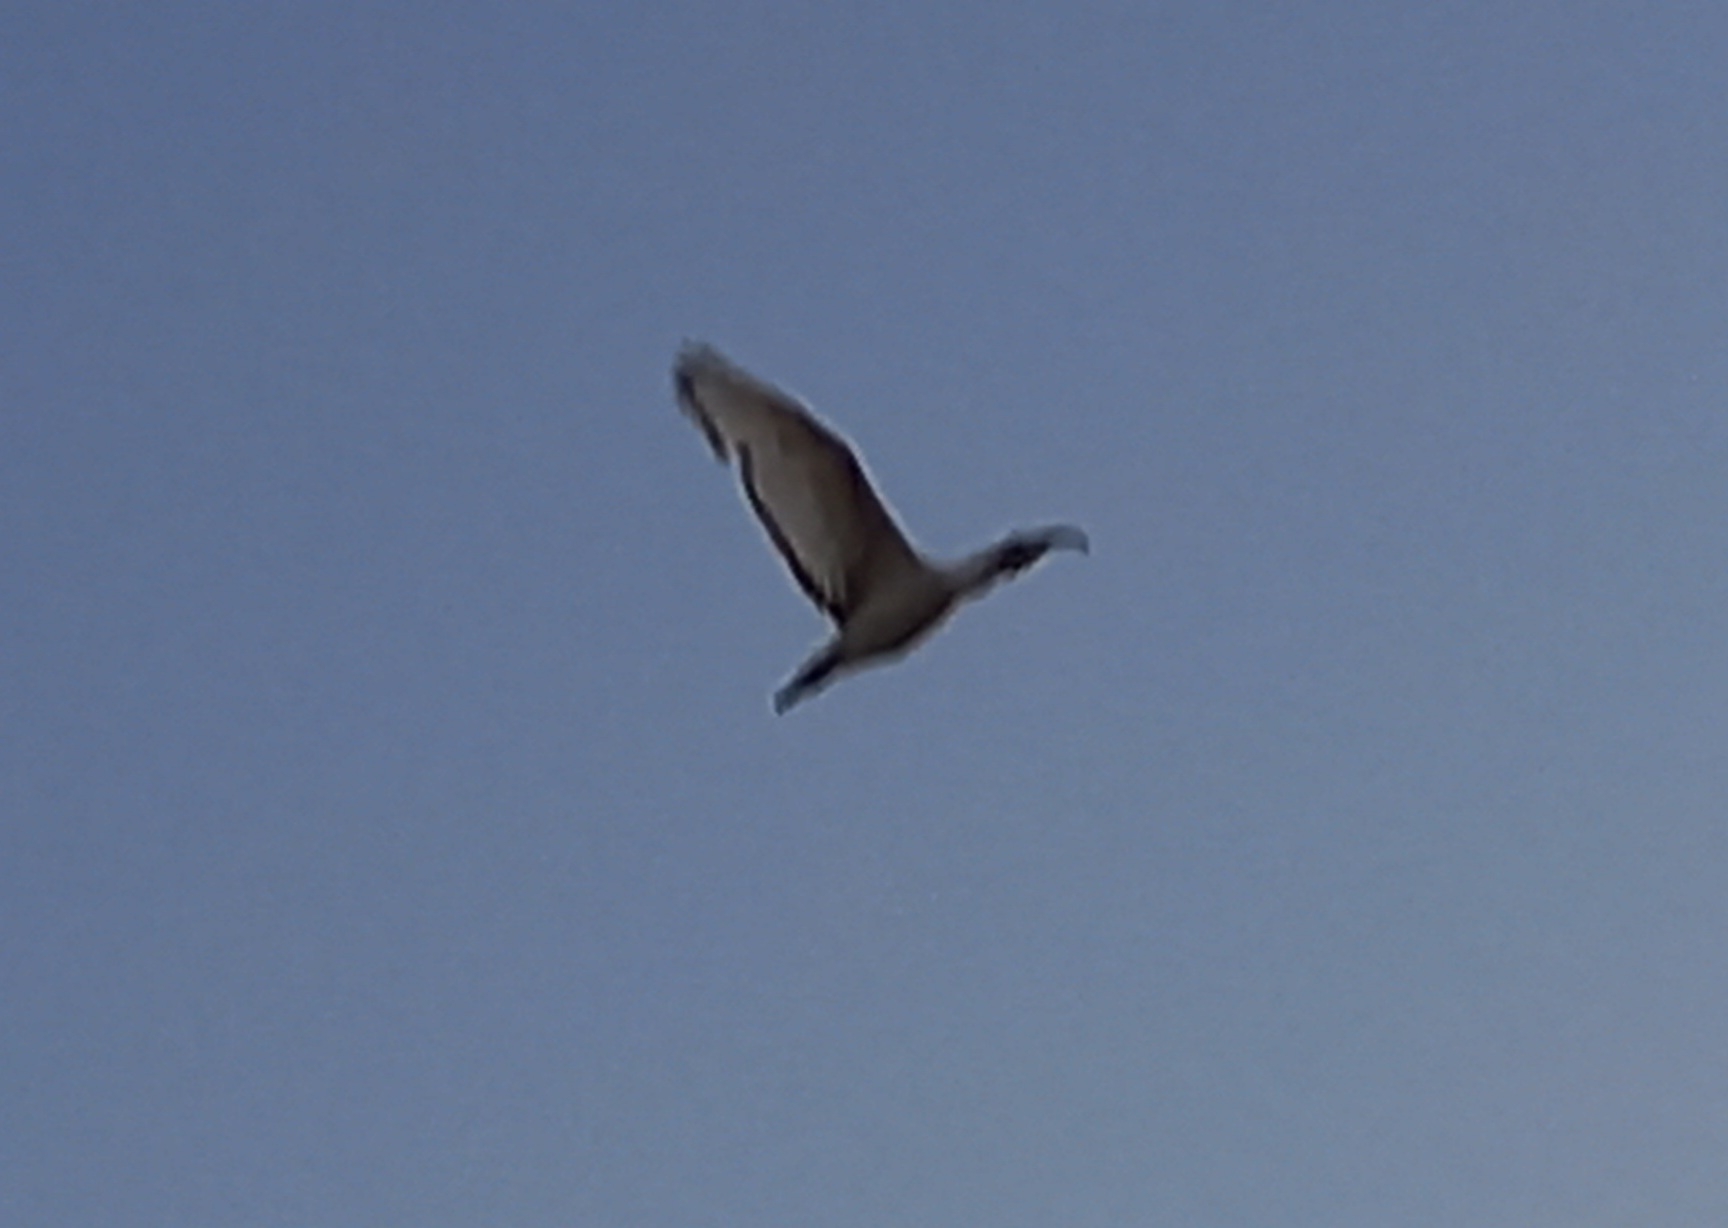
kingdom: Animalia
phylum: Chordata
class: Aves
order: Pelecaniformes
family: Threskiornithidae
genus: Threskiornis
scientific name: Threskiornis aethiopicus
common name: Sacred ibis
